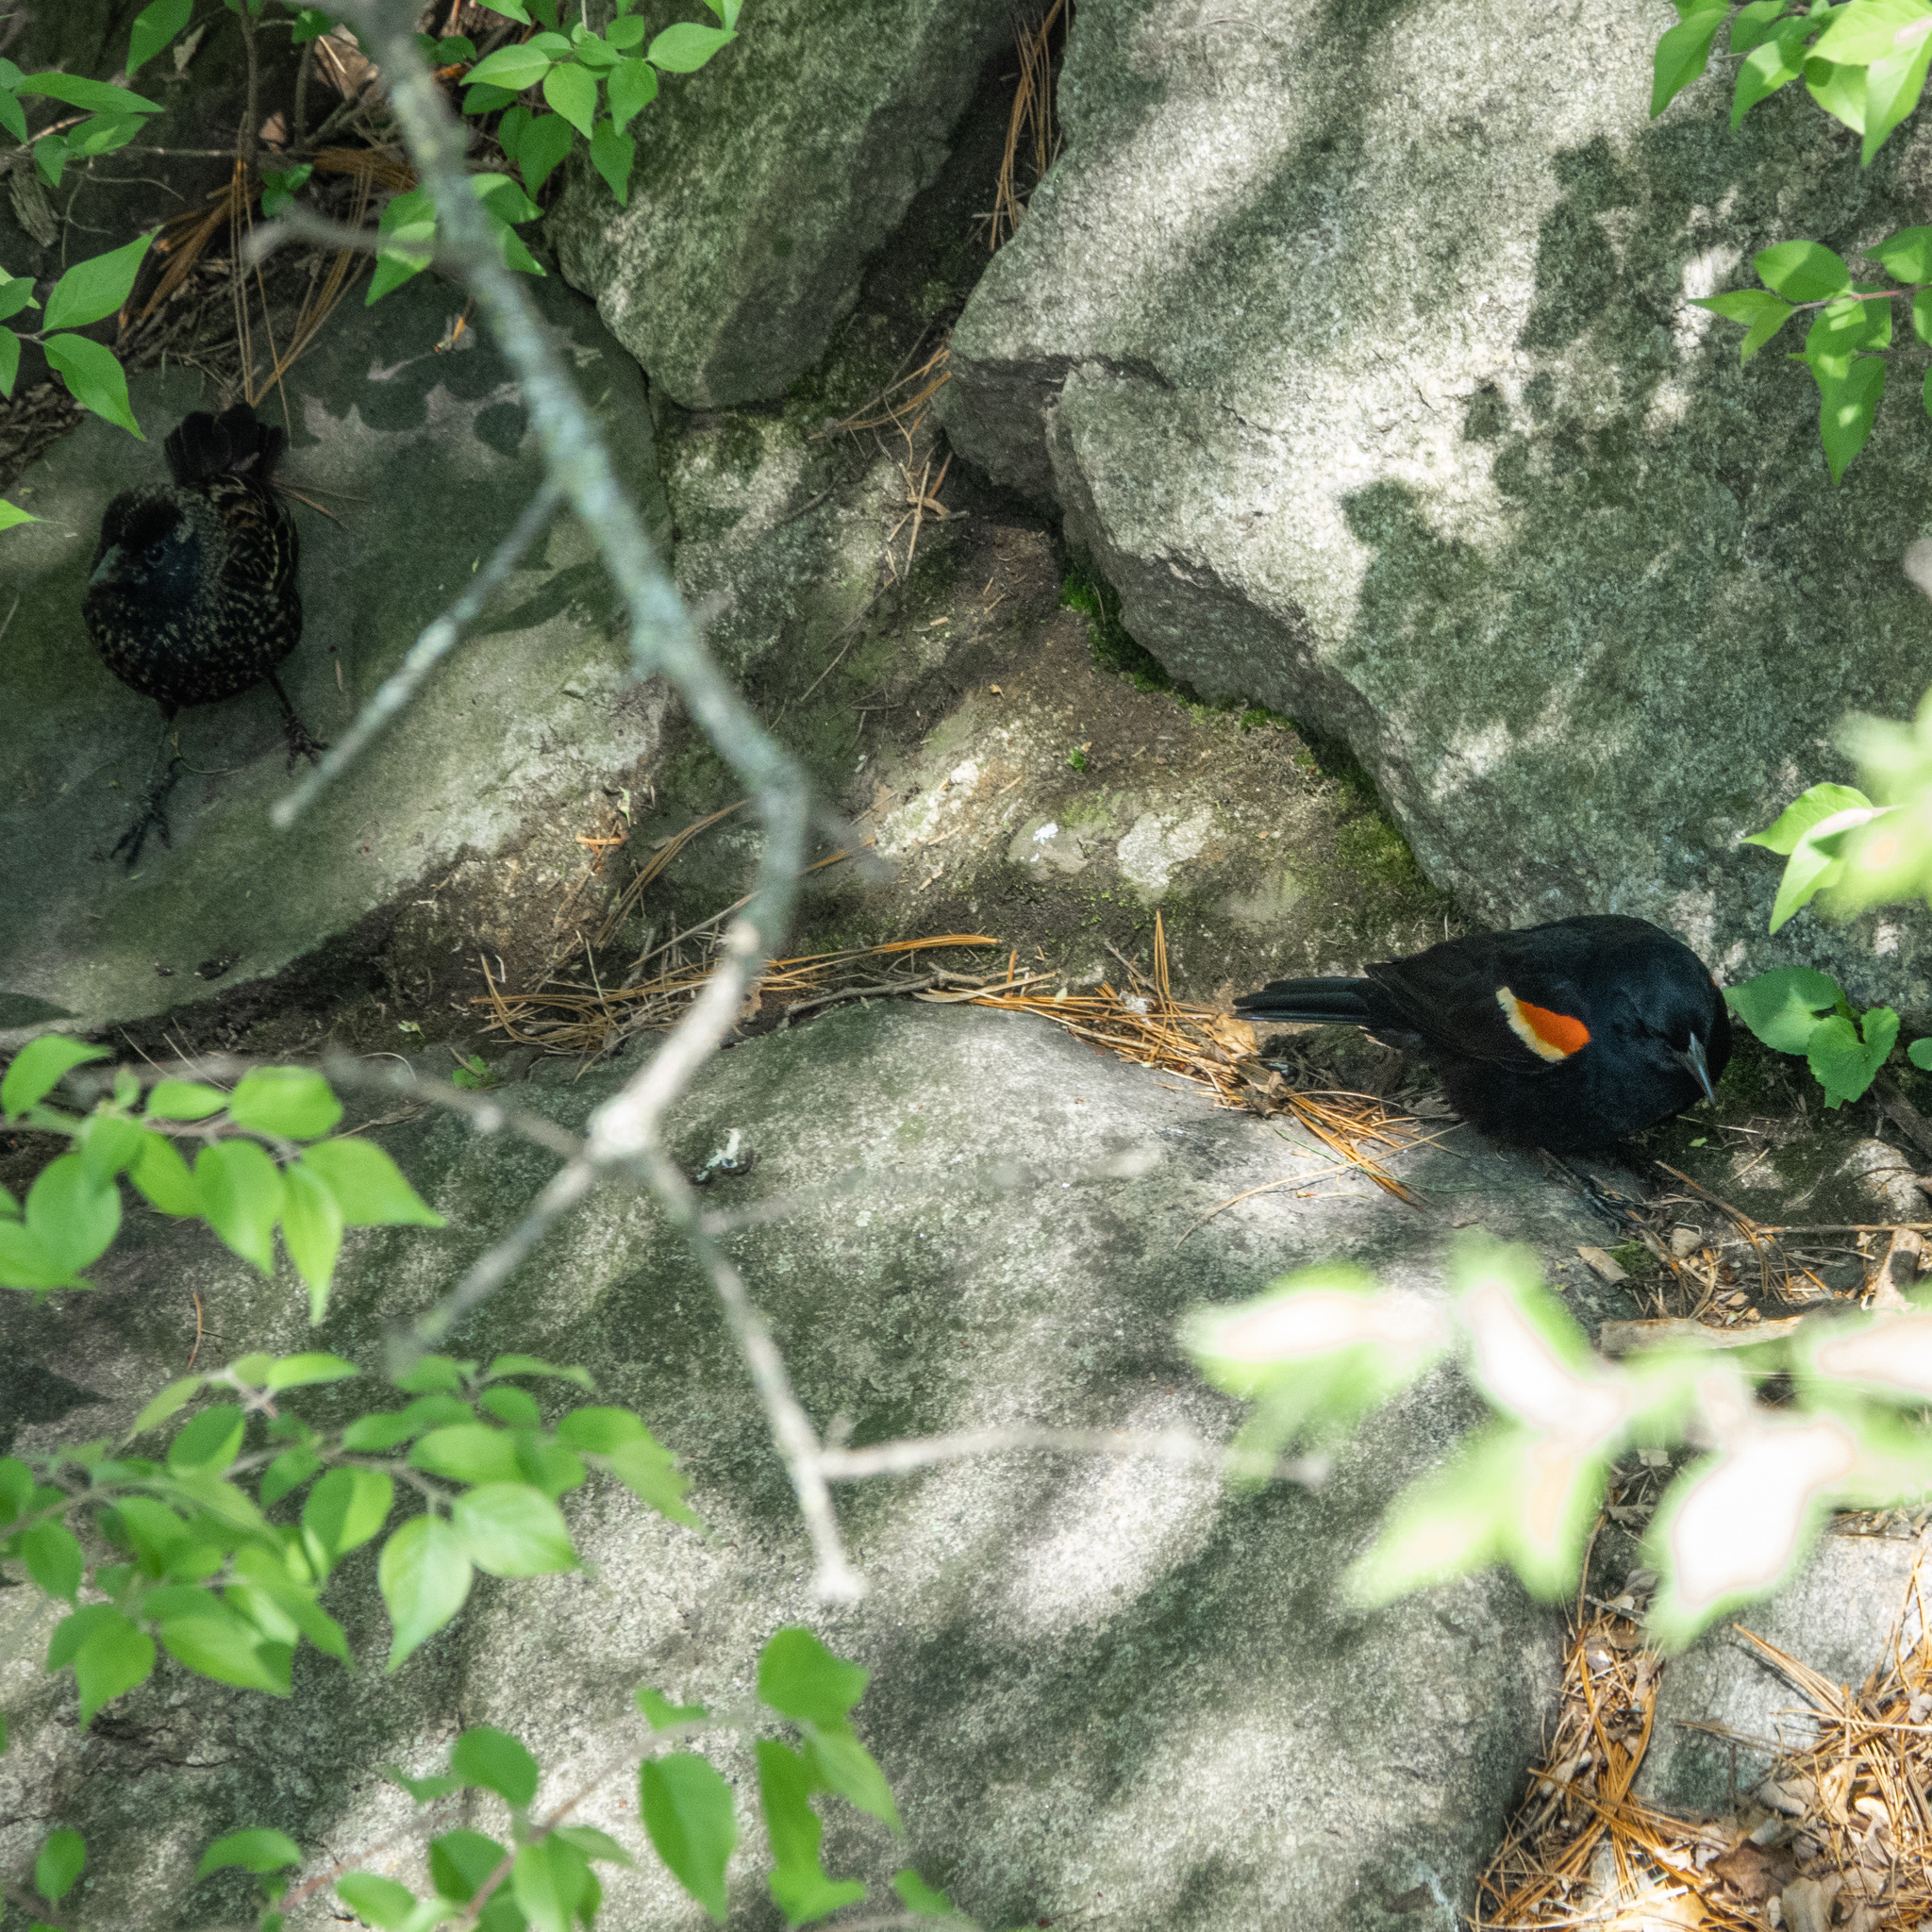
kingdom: Animalia
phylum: Chordata
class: Aves
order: Passeriformes
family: Icteridae
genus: Agelaius
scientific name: Agelaius phoeniceus
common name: Red-winged blackbird
